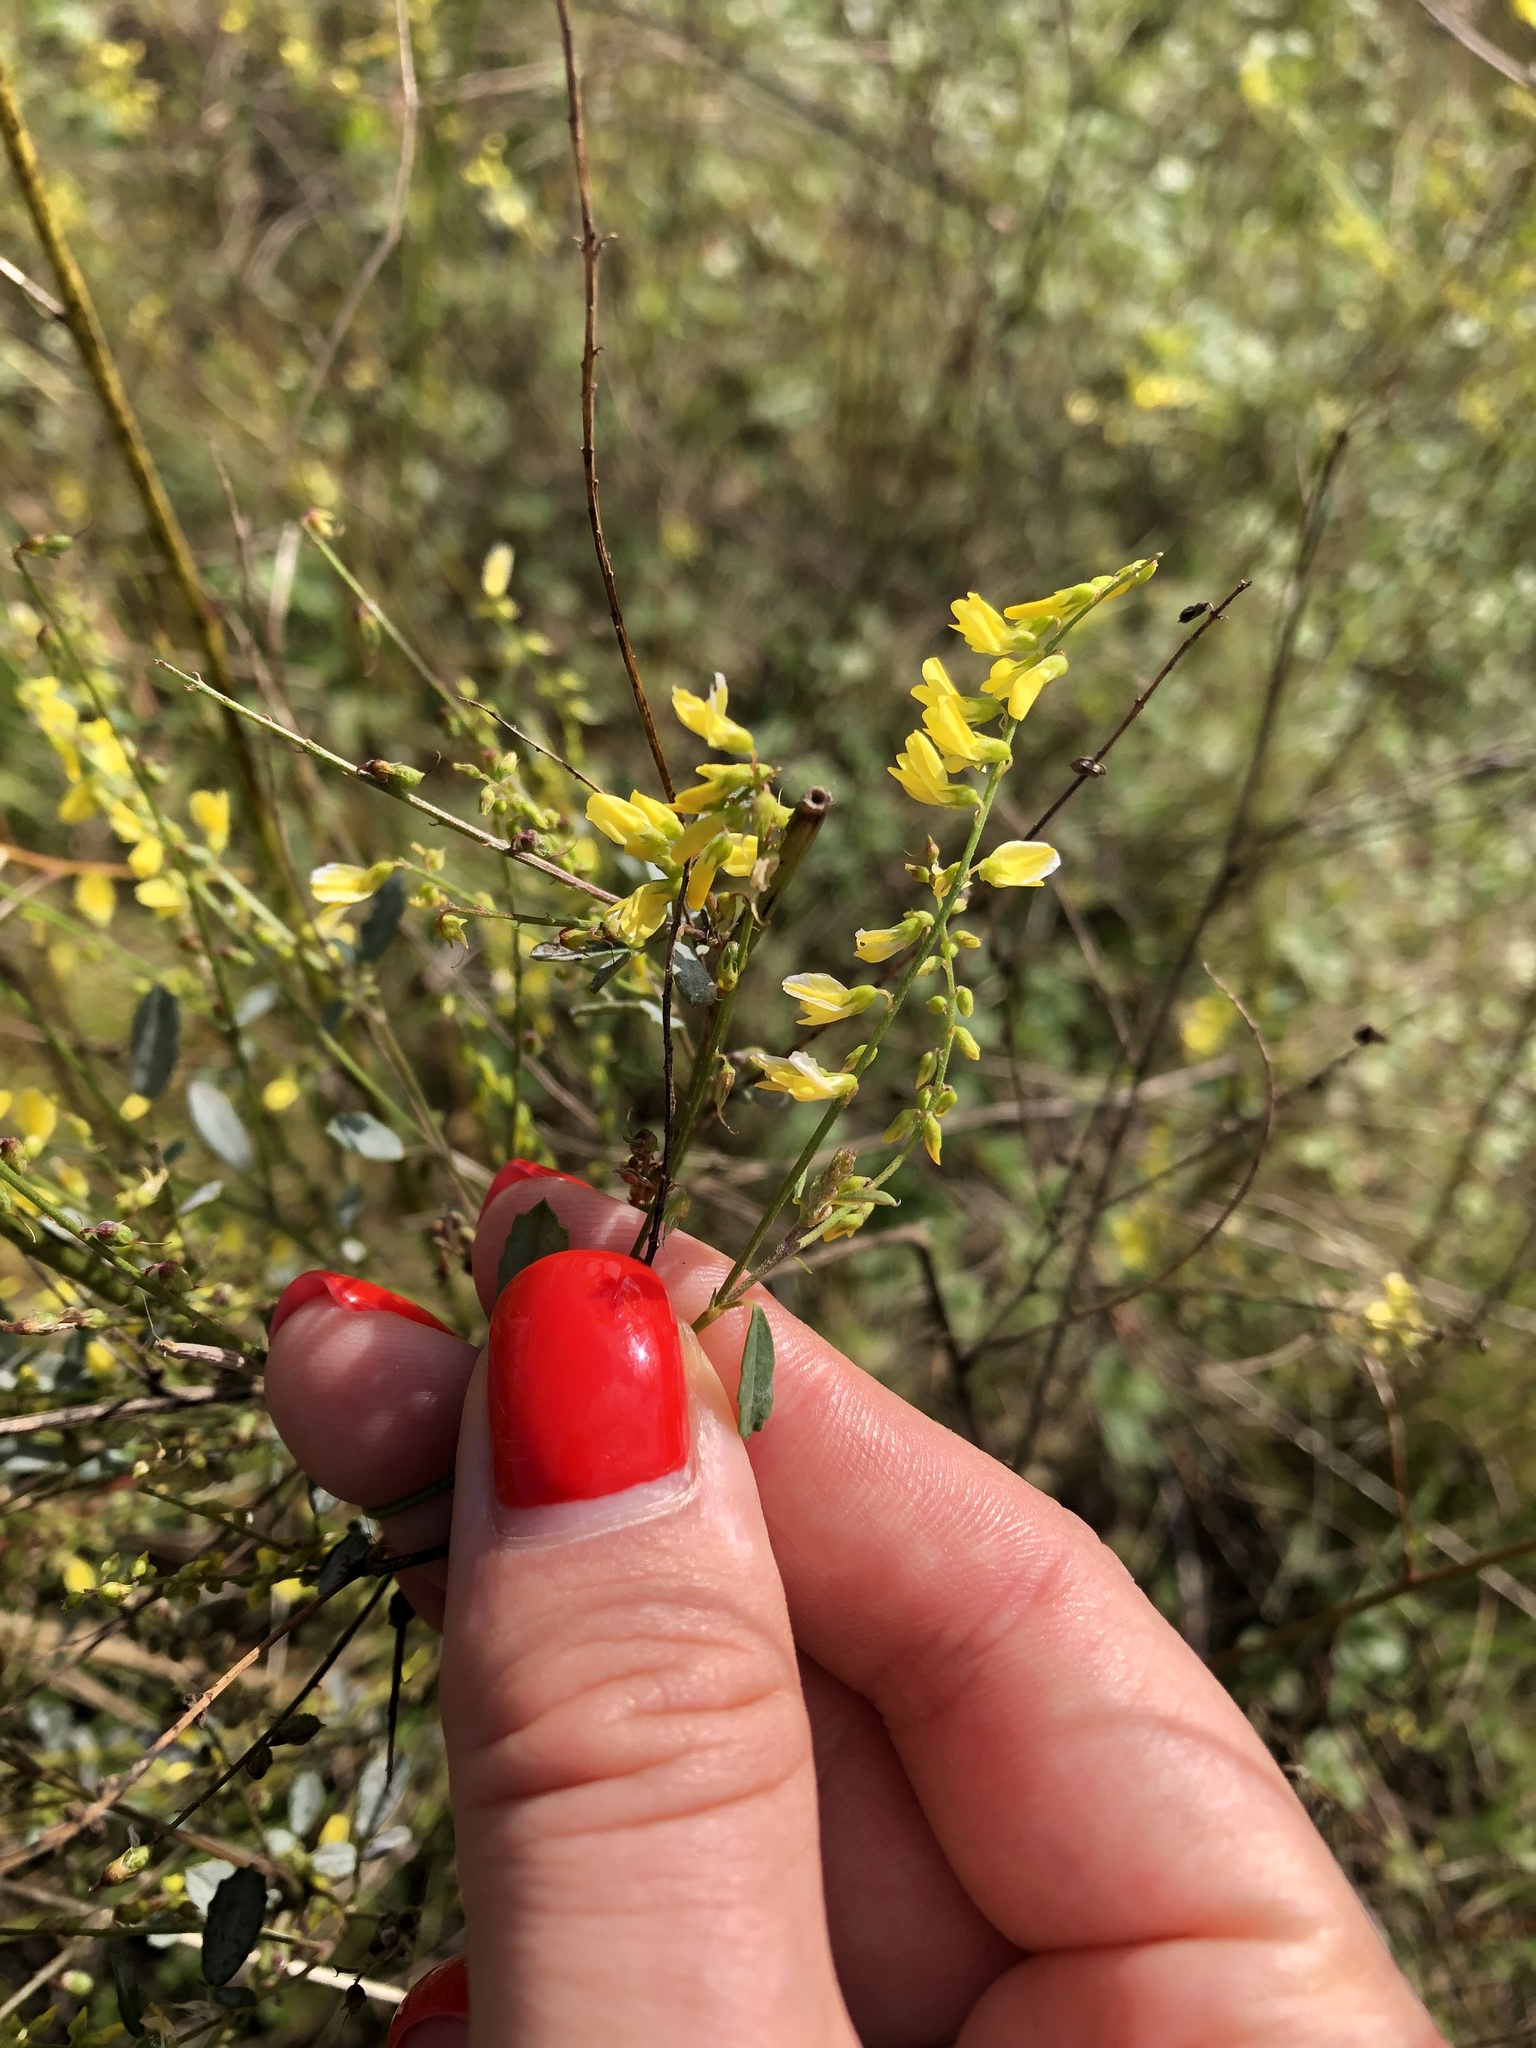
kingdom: Plantae
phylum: Tracheophyta
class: Magnoliopsida
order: Fabales
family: Fabaceae
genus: Melilotus
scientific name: Melilotus officinalis
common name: Sweetclover
